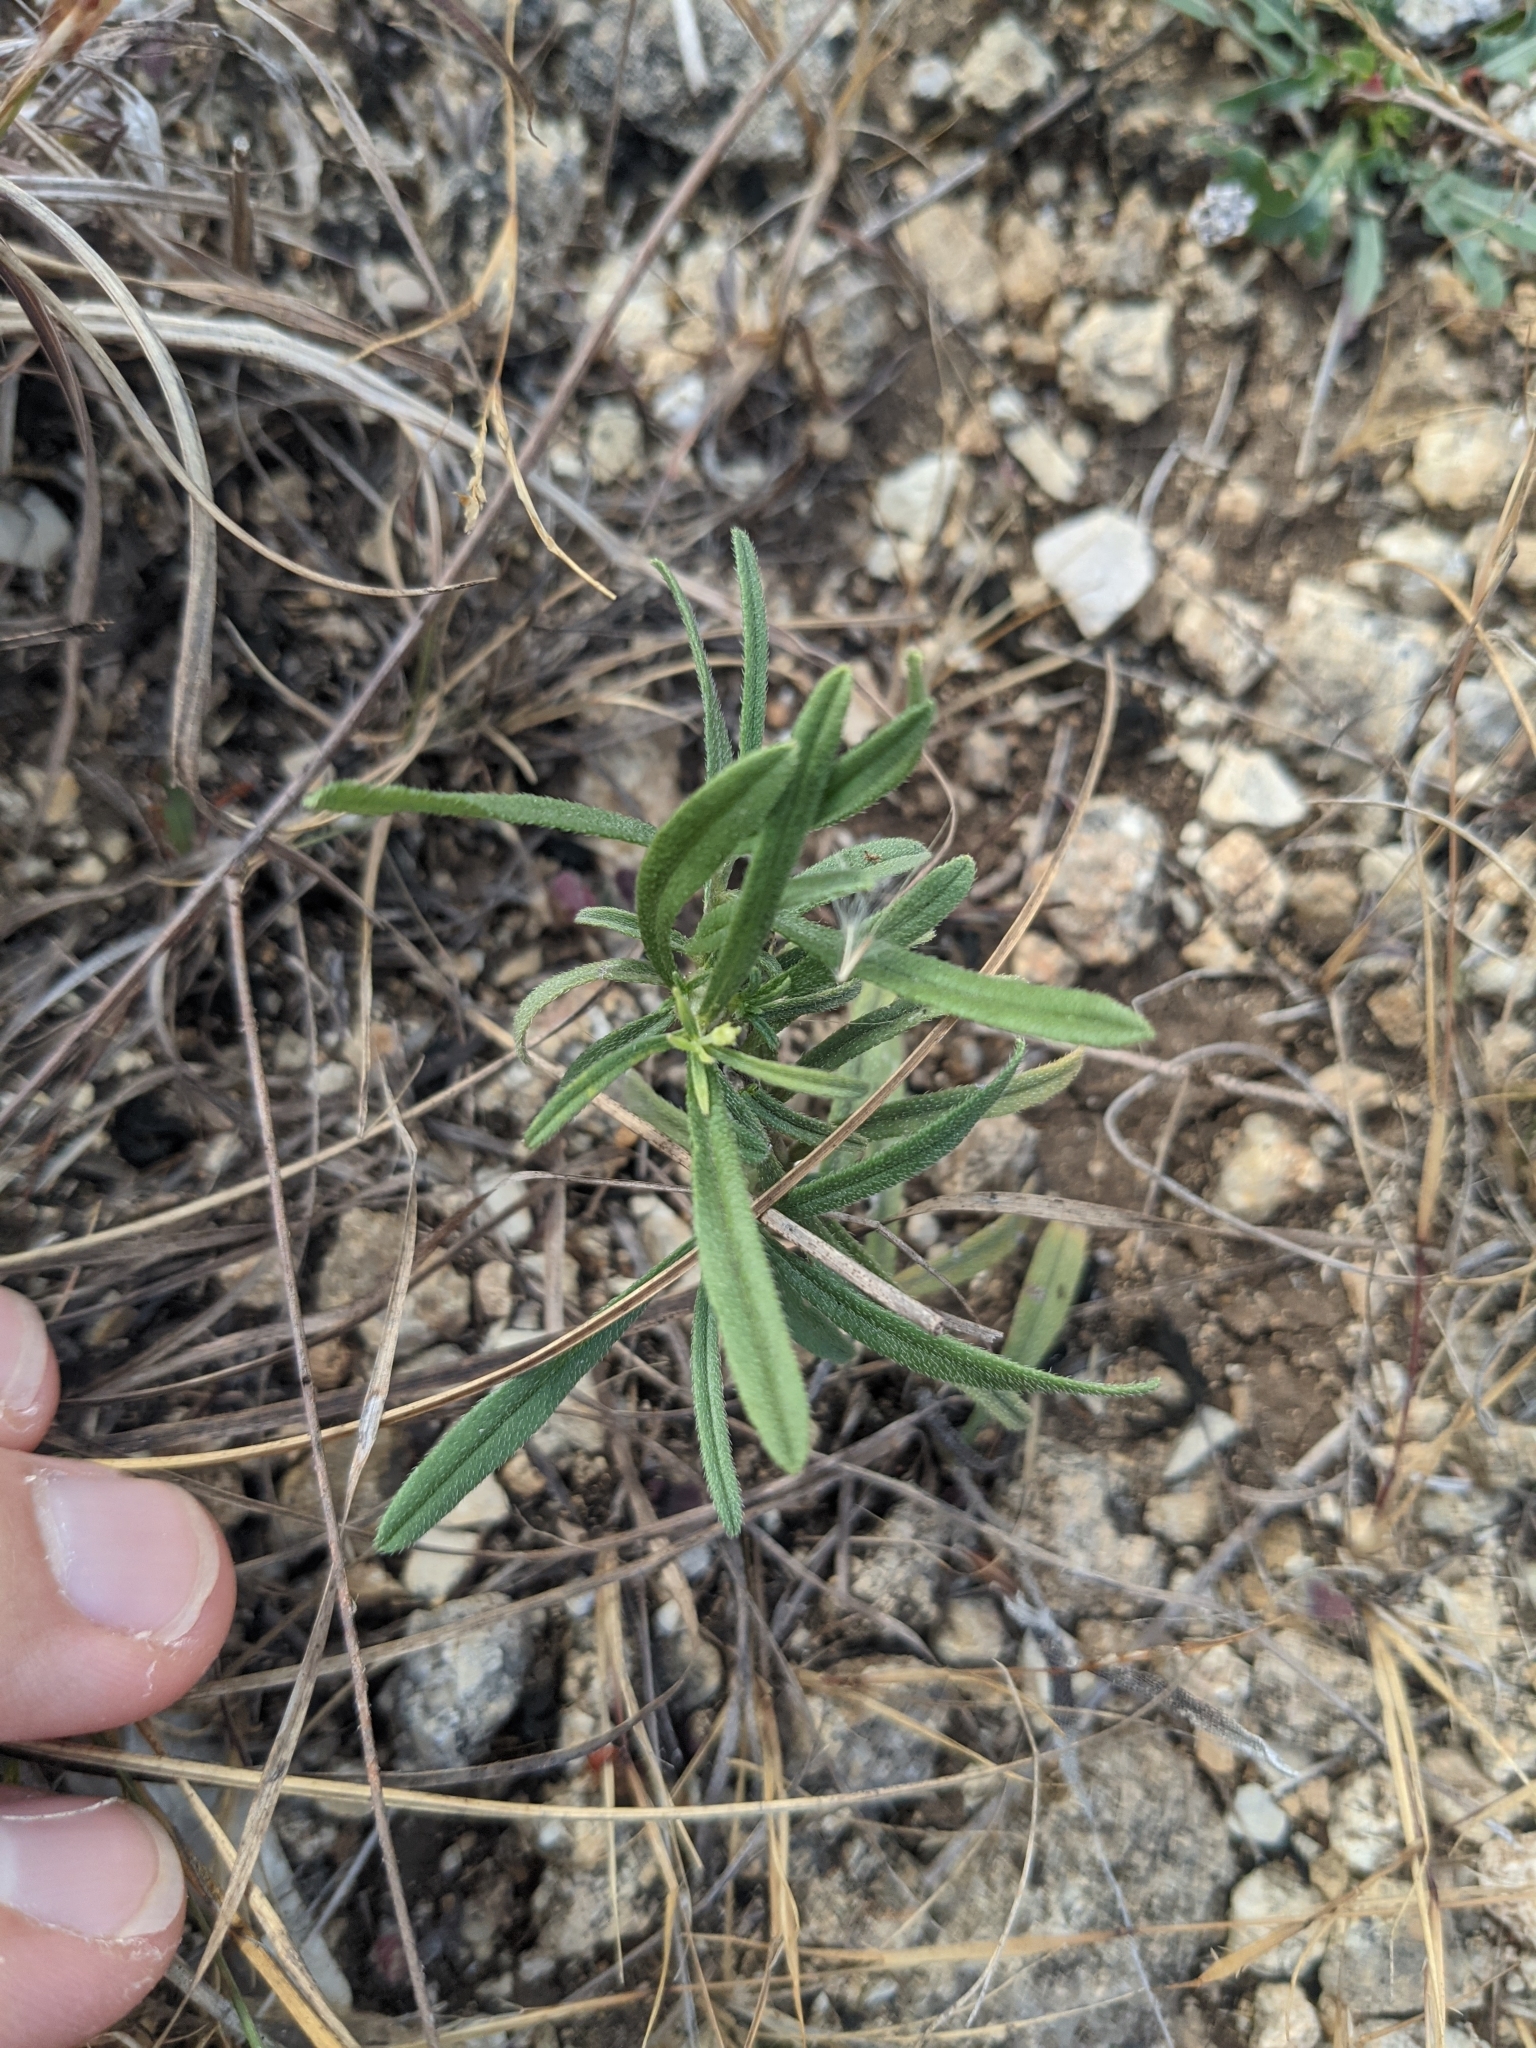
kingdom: Plantae
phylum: Tracheophyta
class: Magnoliopsida
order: Boraginales
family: Boraginaceae
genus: Lithospermum
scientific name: Lithospermum incisum
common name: Fringed gromwell
